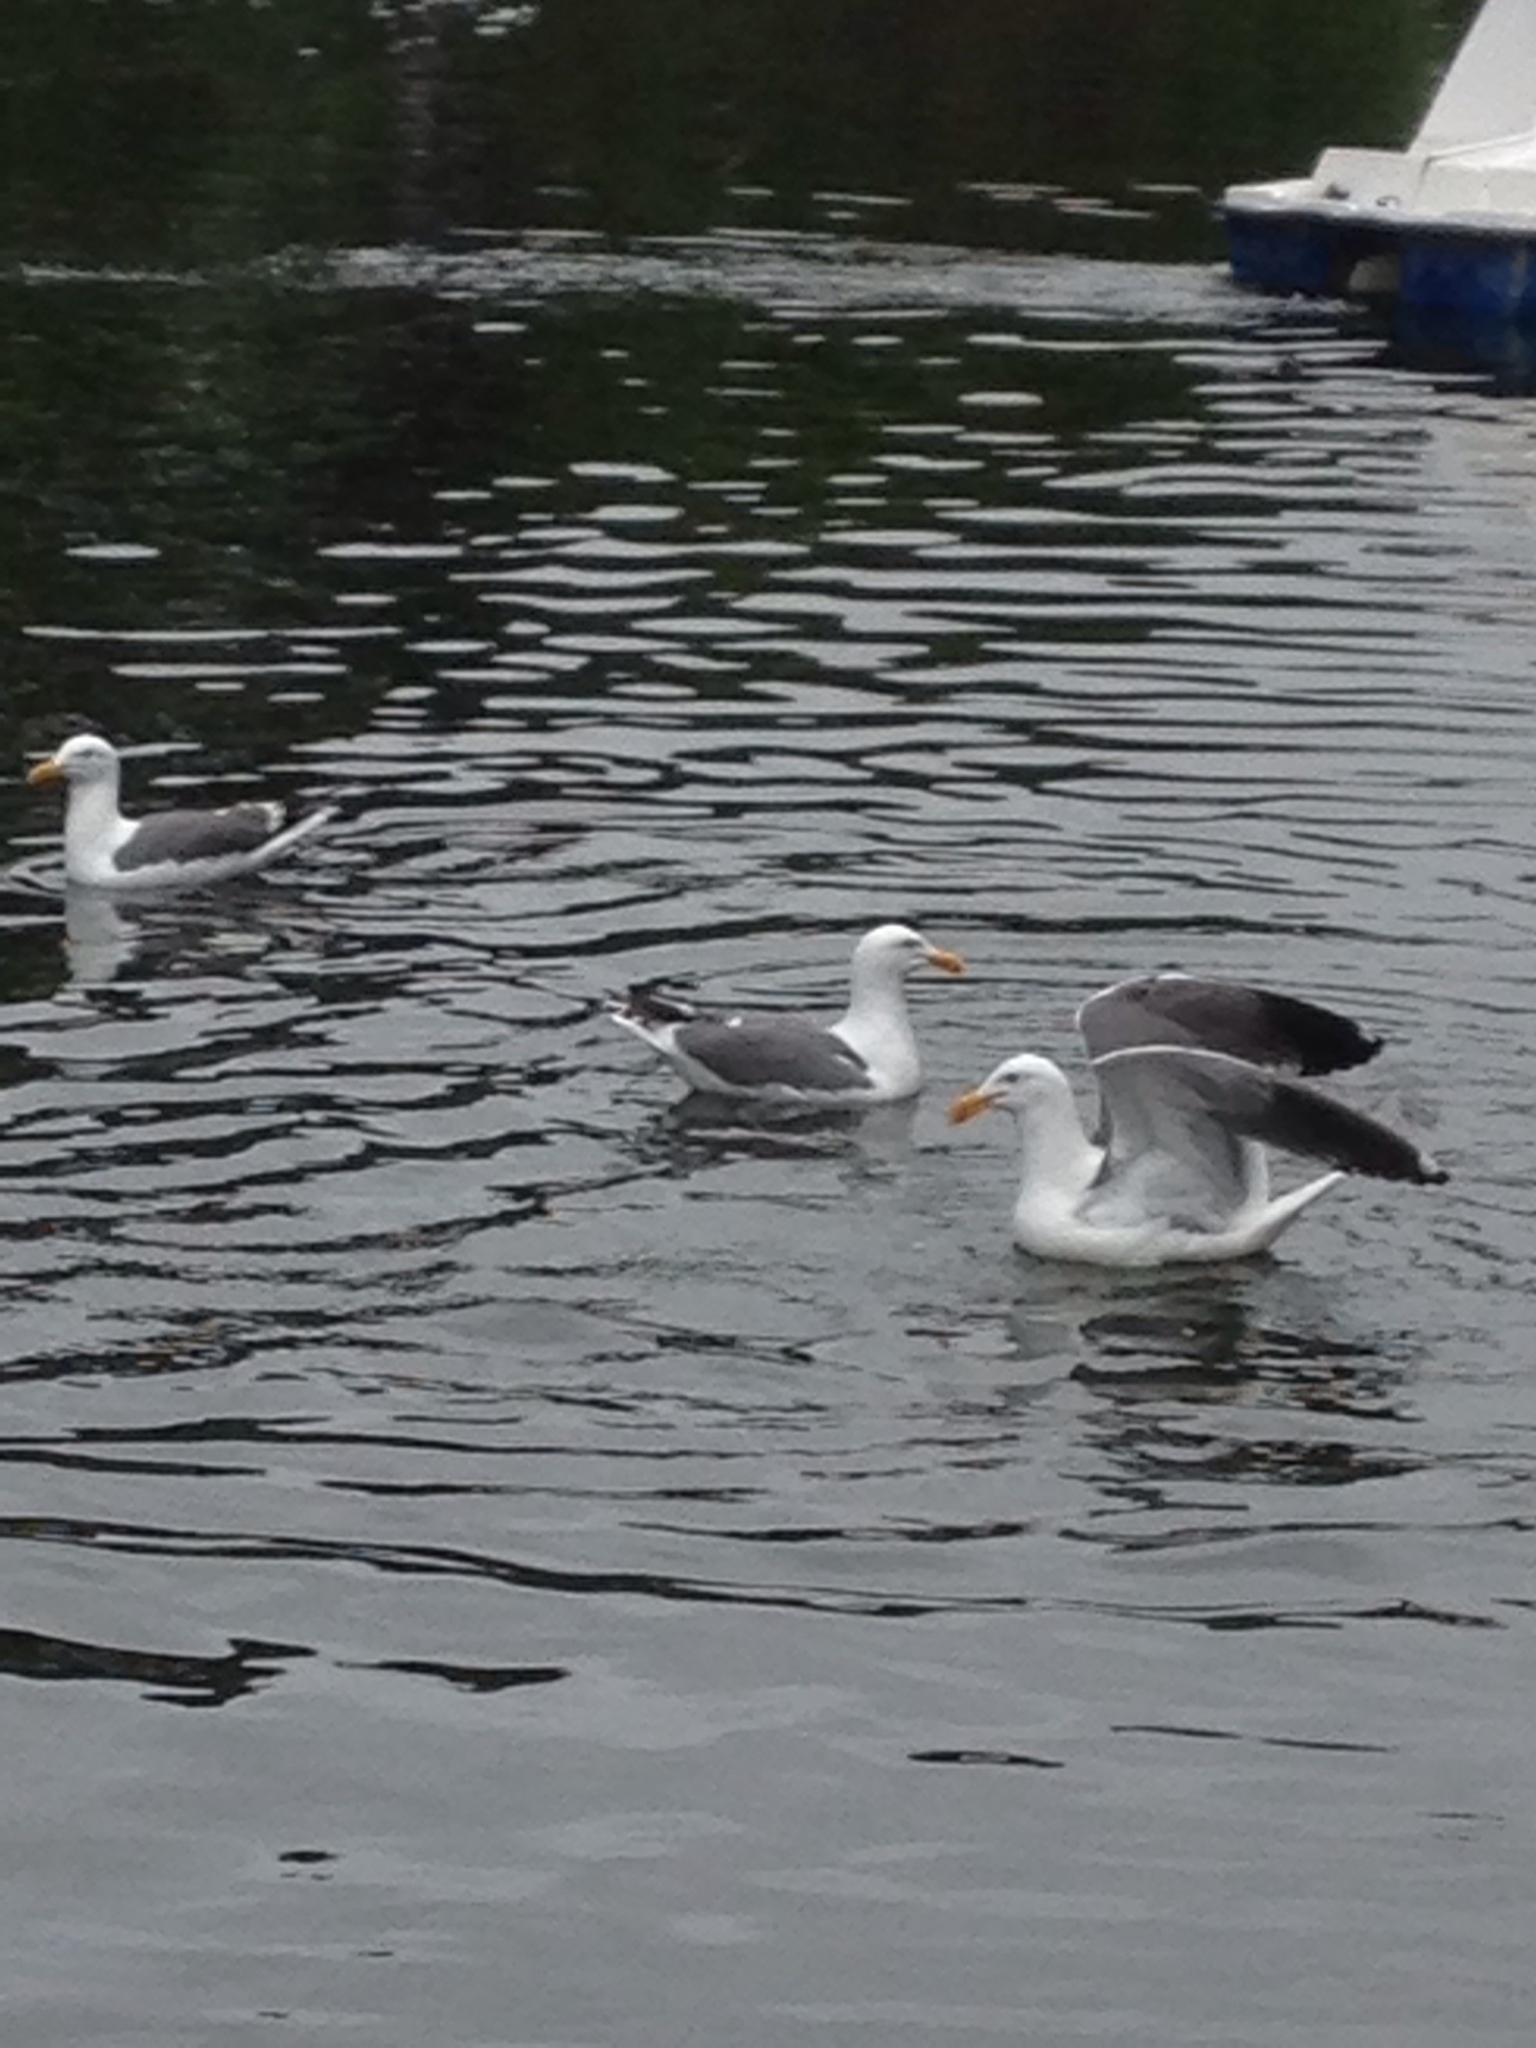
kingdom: Animalia
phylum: Chordata
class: Aves
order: Charadriiformes
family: Laridae
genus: Larus
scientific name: Larus occidentalis
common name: Western gull
